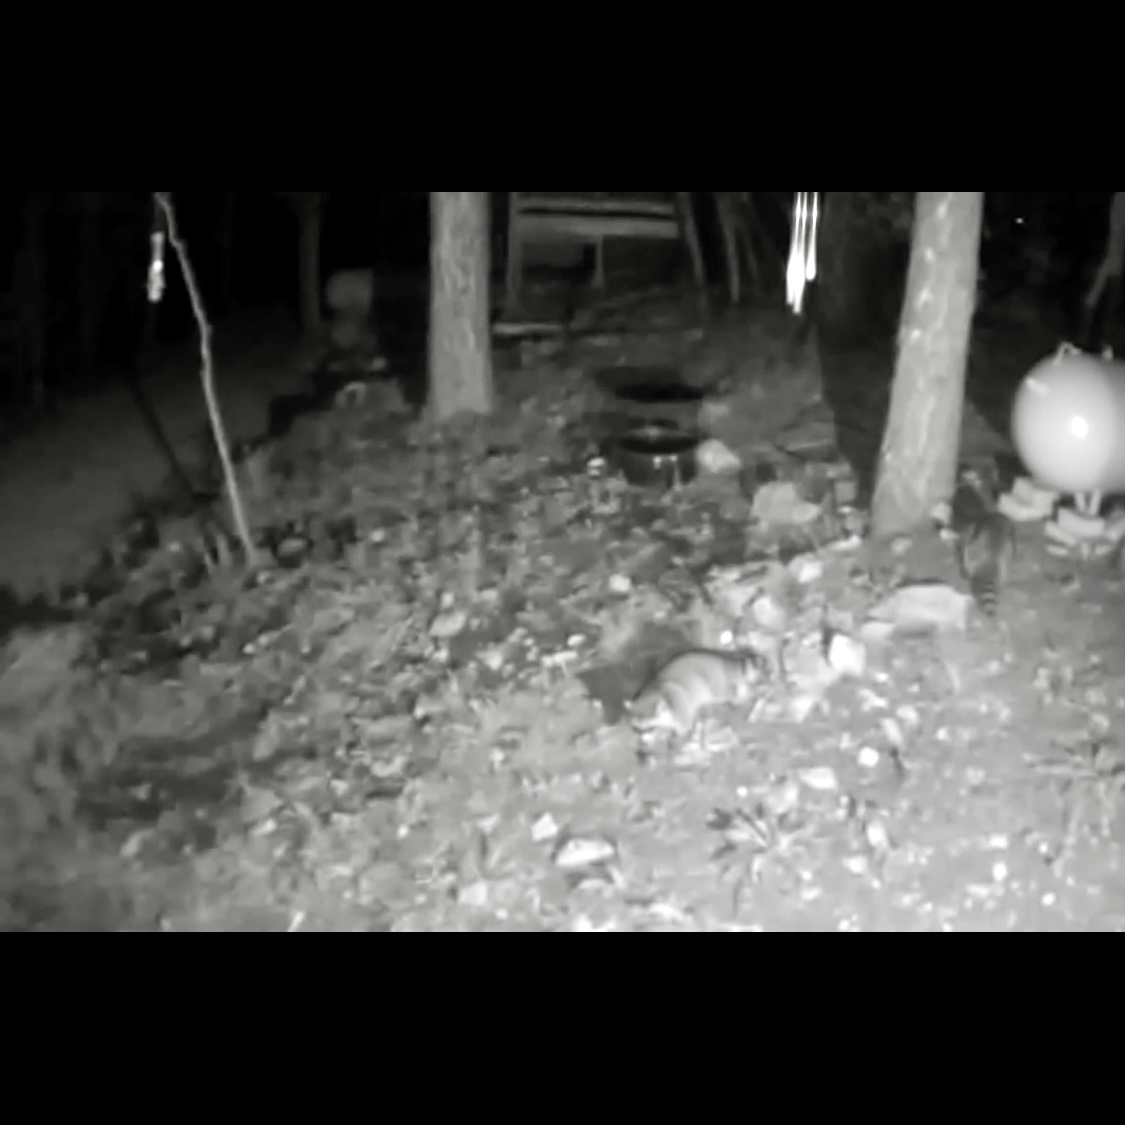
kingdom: Animalia
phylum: Chordata
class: Mammalia
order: Carnivora
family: Procyonidae
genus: Procyon
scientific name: Procyon lotor
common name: Raccoon
